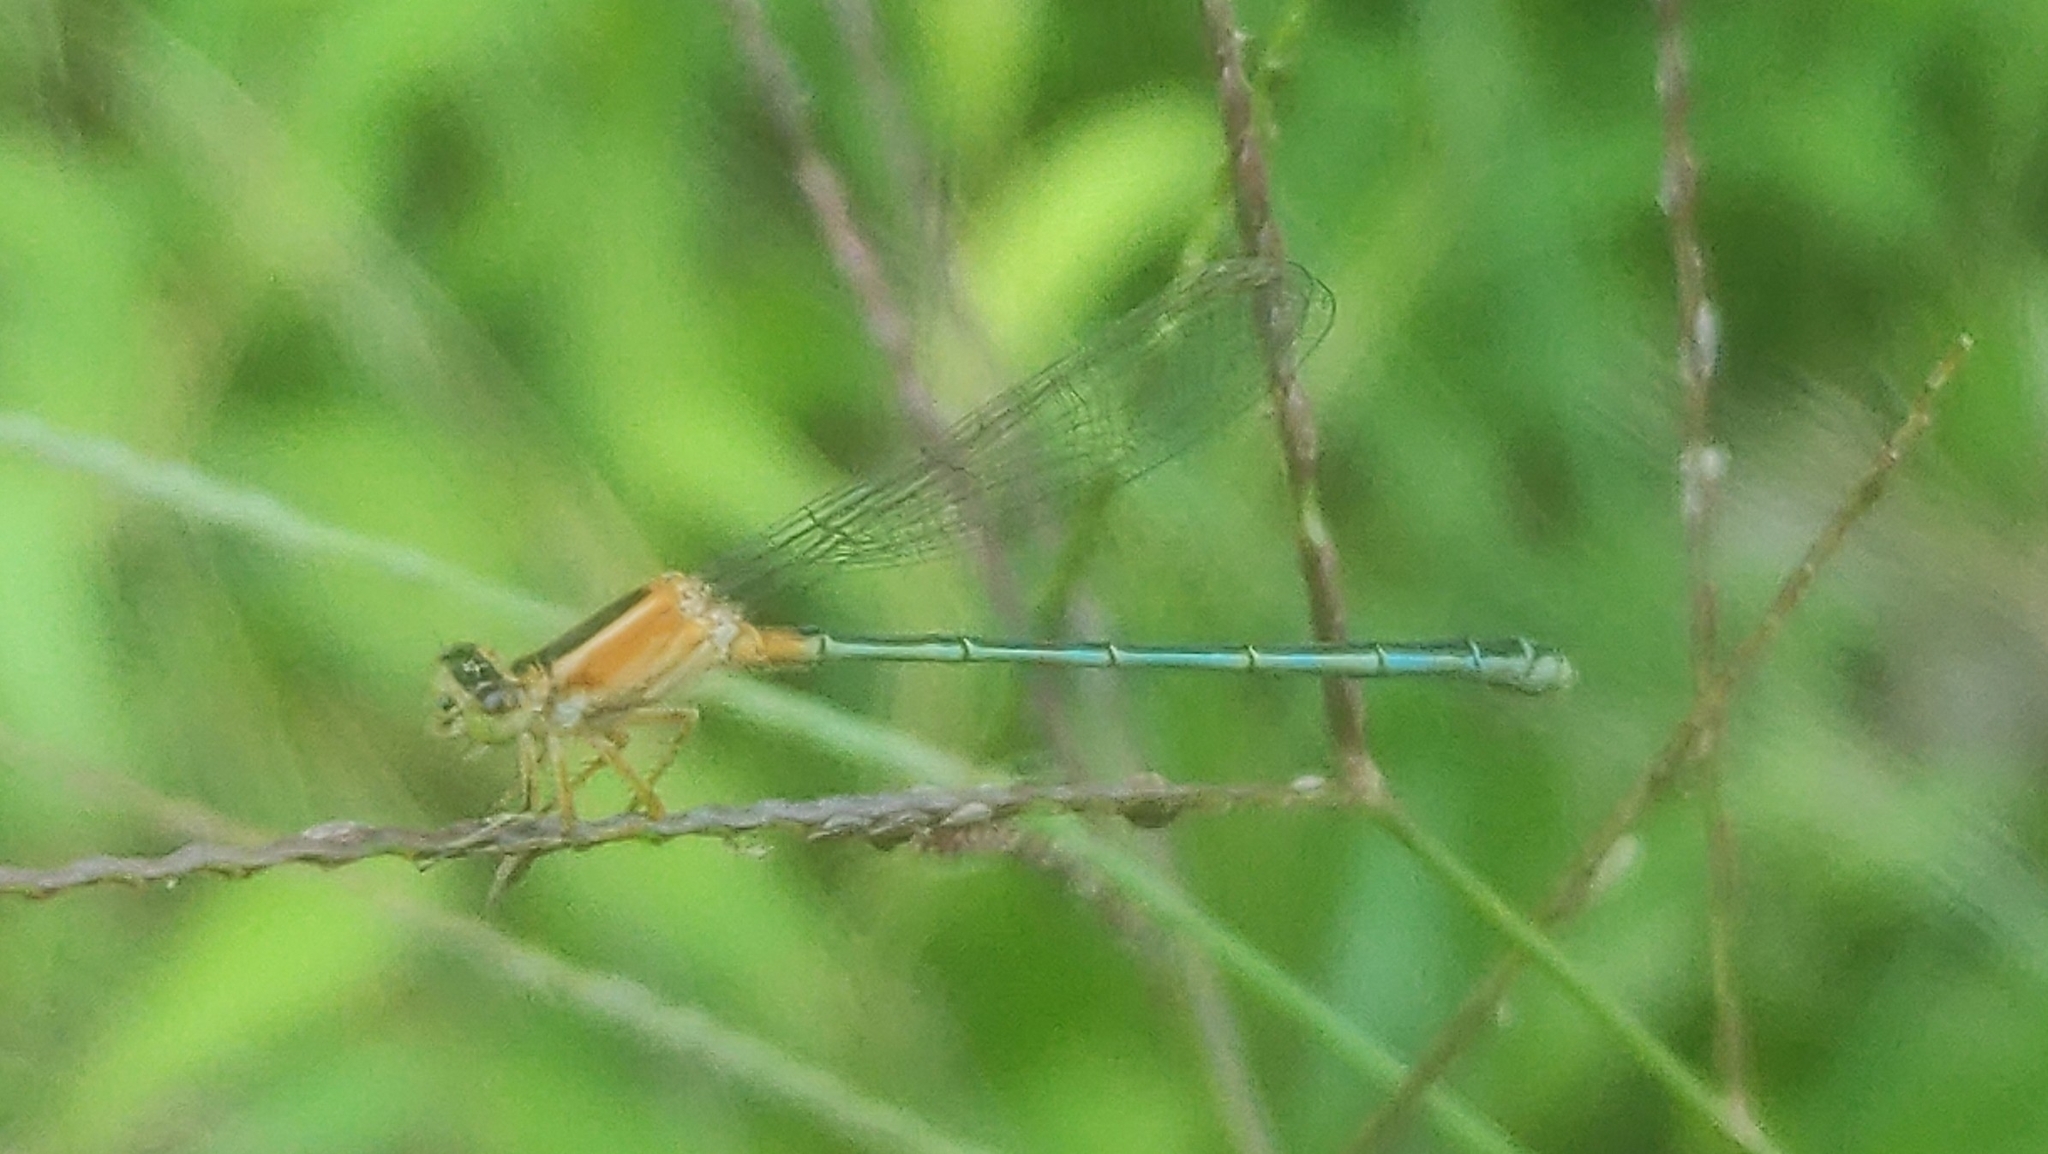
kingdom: Animalia
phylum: Arthropoda
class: Insecta
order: Odonata
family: Coenagrionidae
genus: Ischnura
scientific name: Ischnura senegalensis
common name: Tropical bluetail
